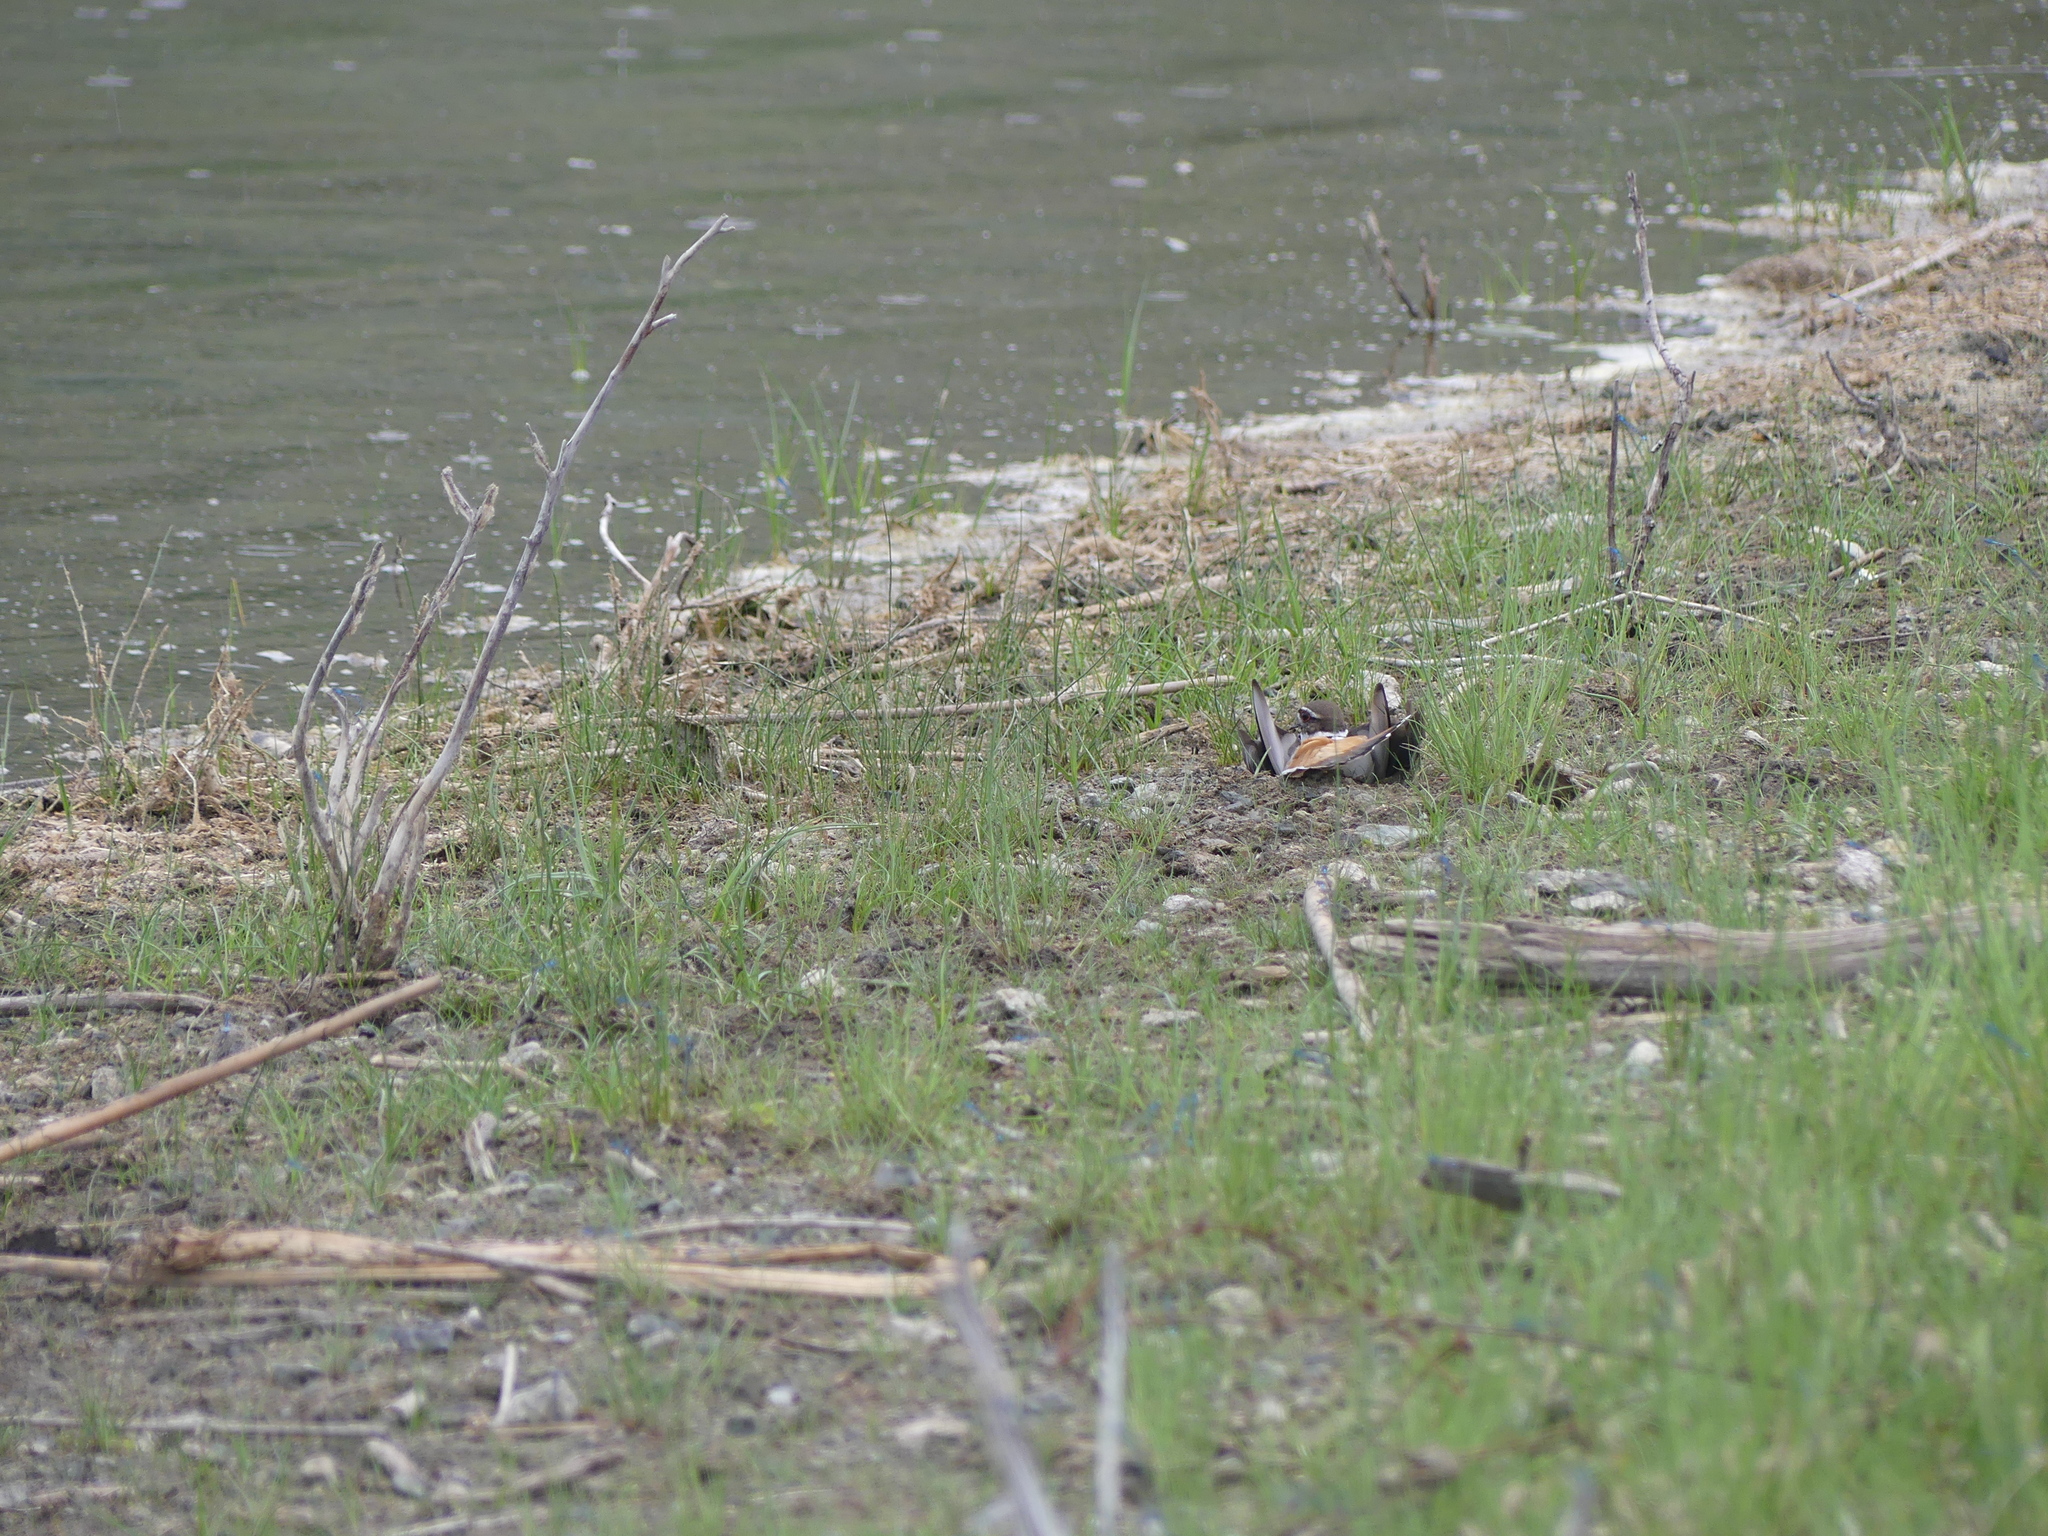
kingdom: Animalia
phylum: Chordata
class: Aves
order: Charadriiformes
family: Charadriidae
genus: Charadrius
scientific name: Charadrius vociferus
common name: Killdeer
